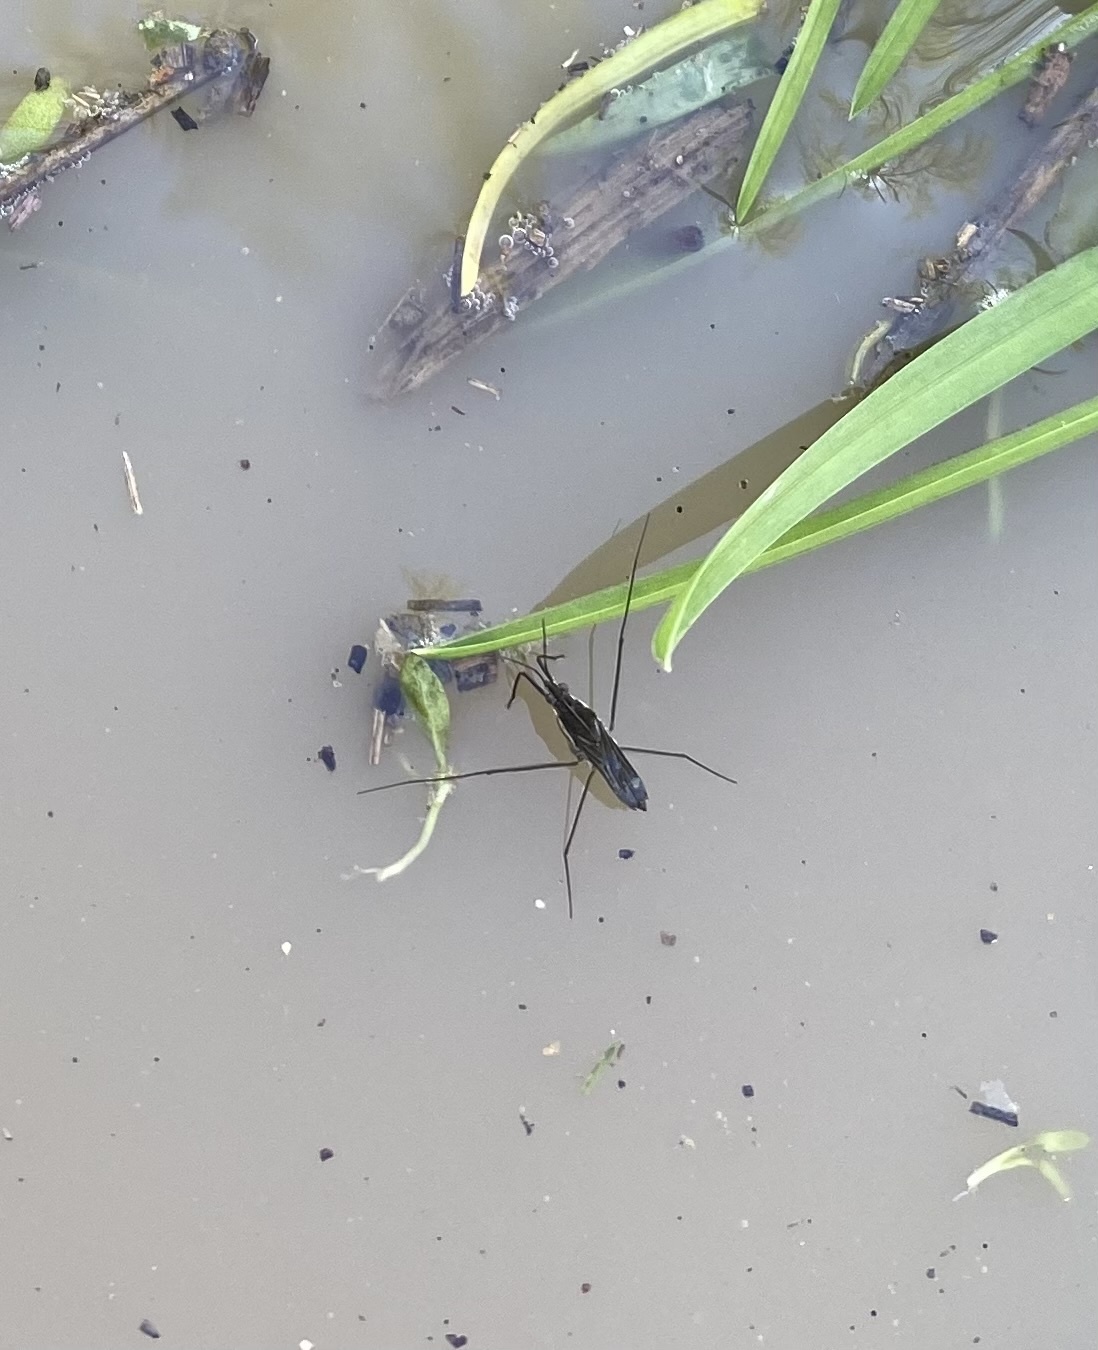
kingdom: Animalia
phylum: Arthropoda
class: Insecta
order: Hemiptera
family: Gerridae
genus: Gerris
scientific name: Gerris
